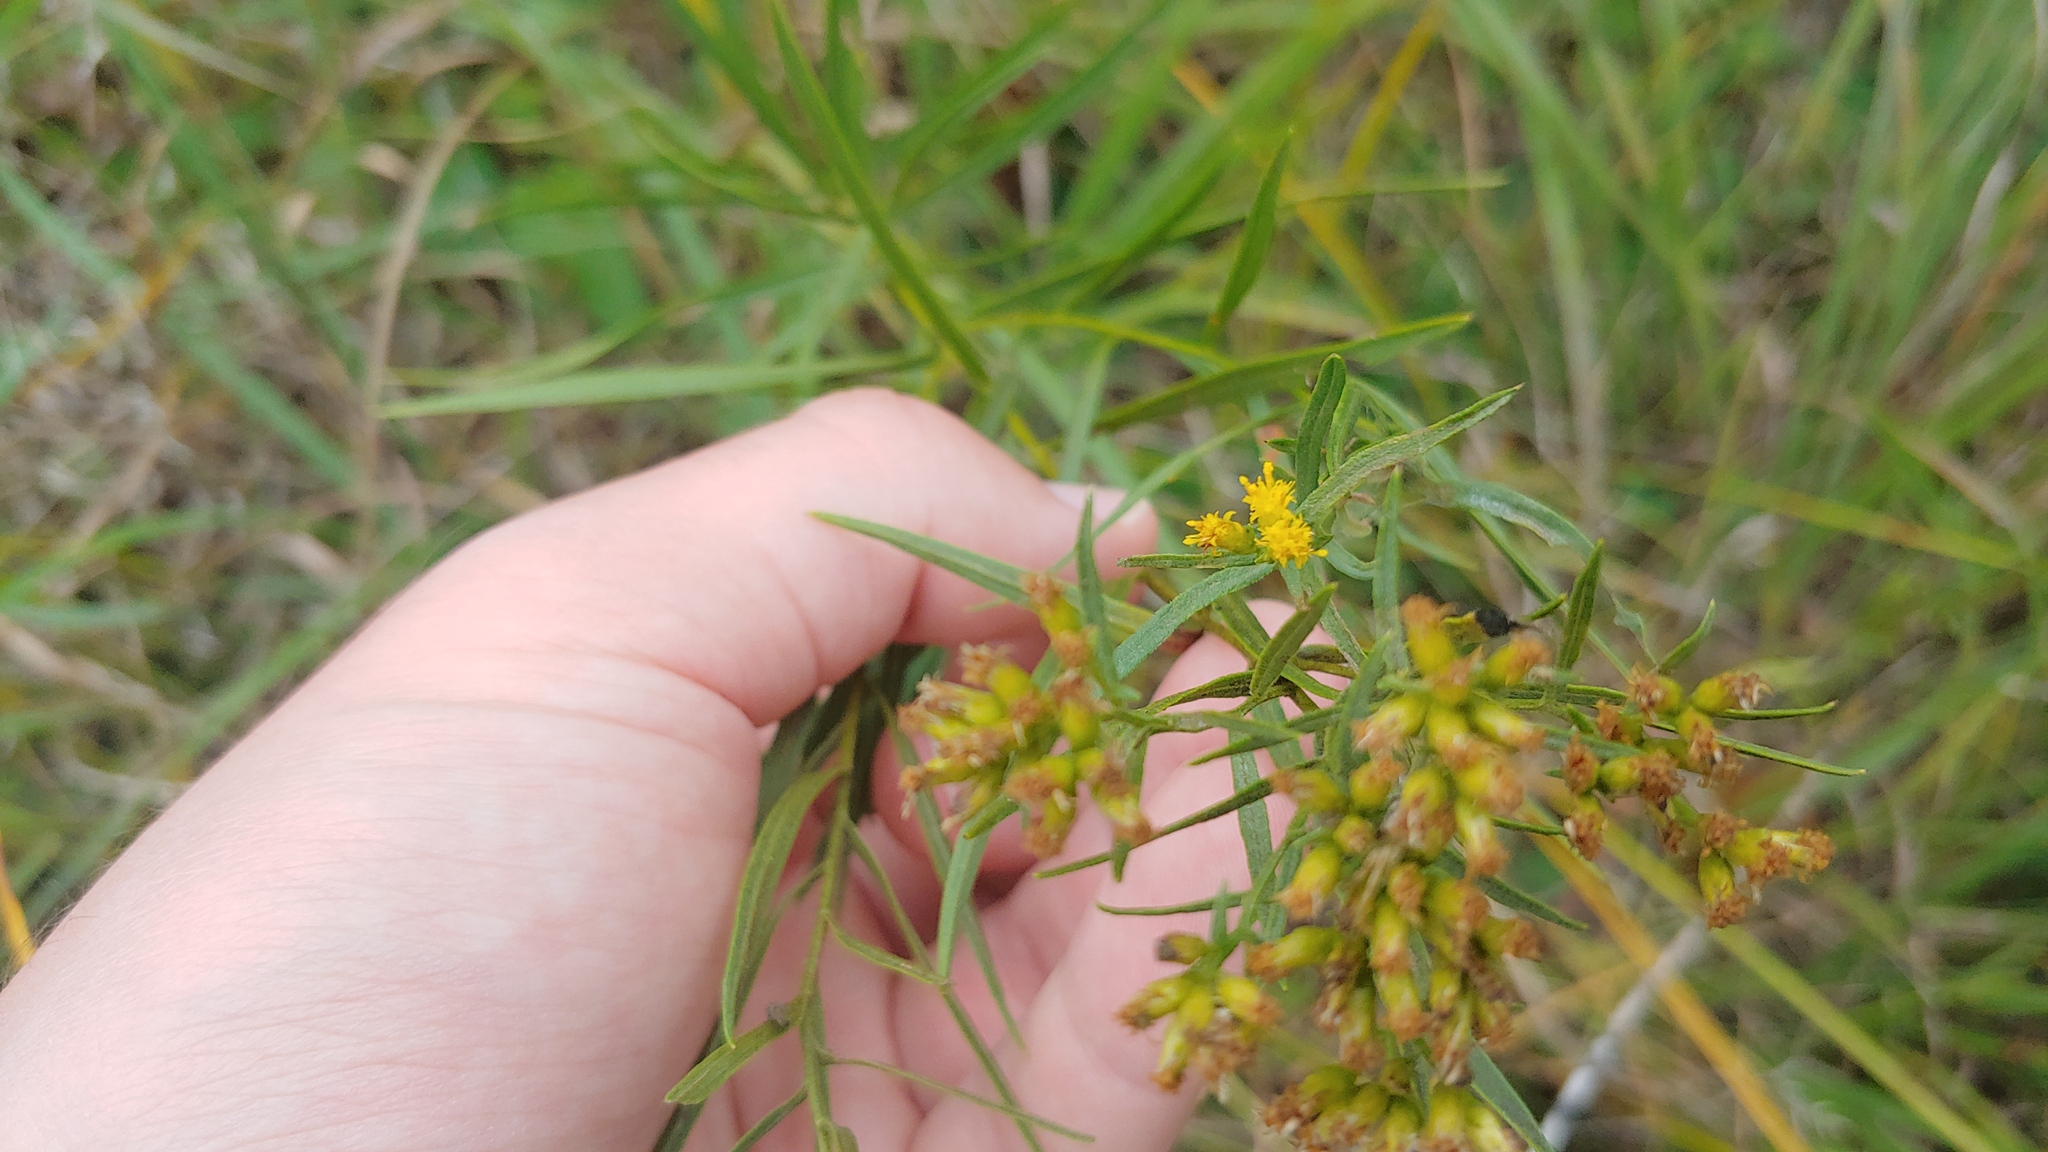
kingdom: Plantae
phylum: Tracheophyta
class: Magnoliopsida
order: Asterales
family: Asteraceae
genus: Euthamia
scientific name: Euthamia gymnospermoides
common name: Great plains goldentop
